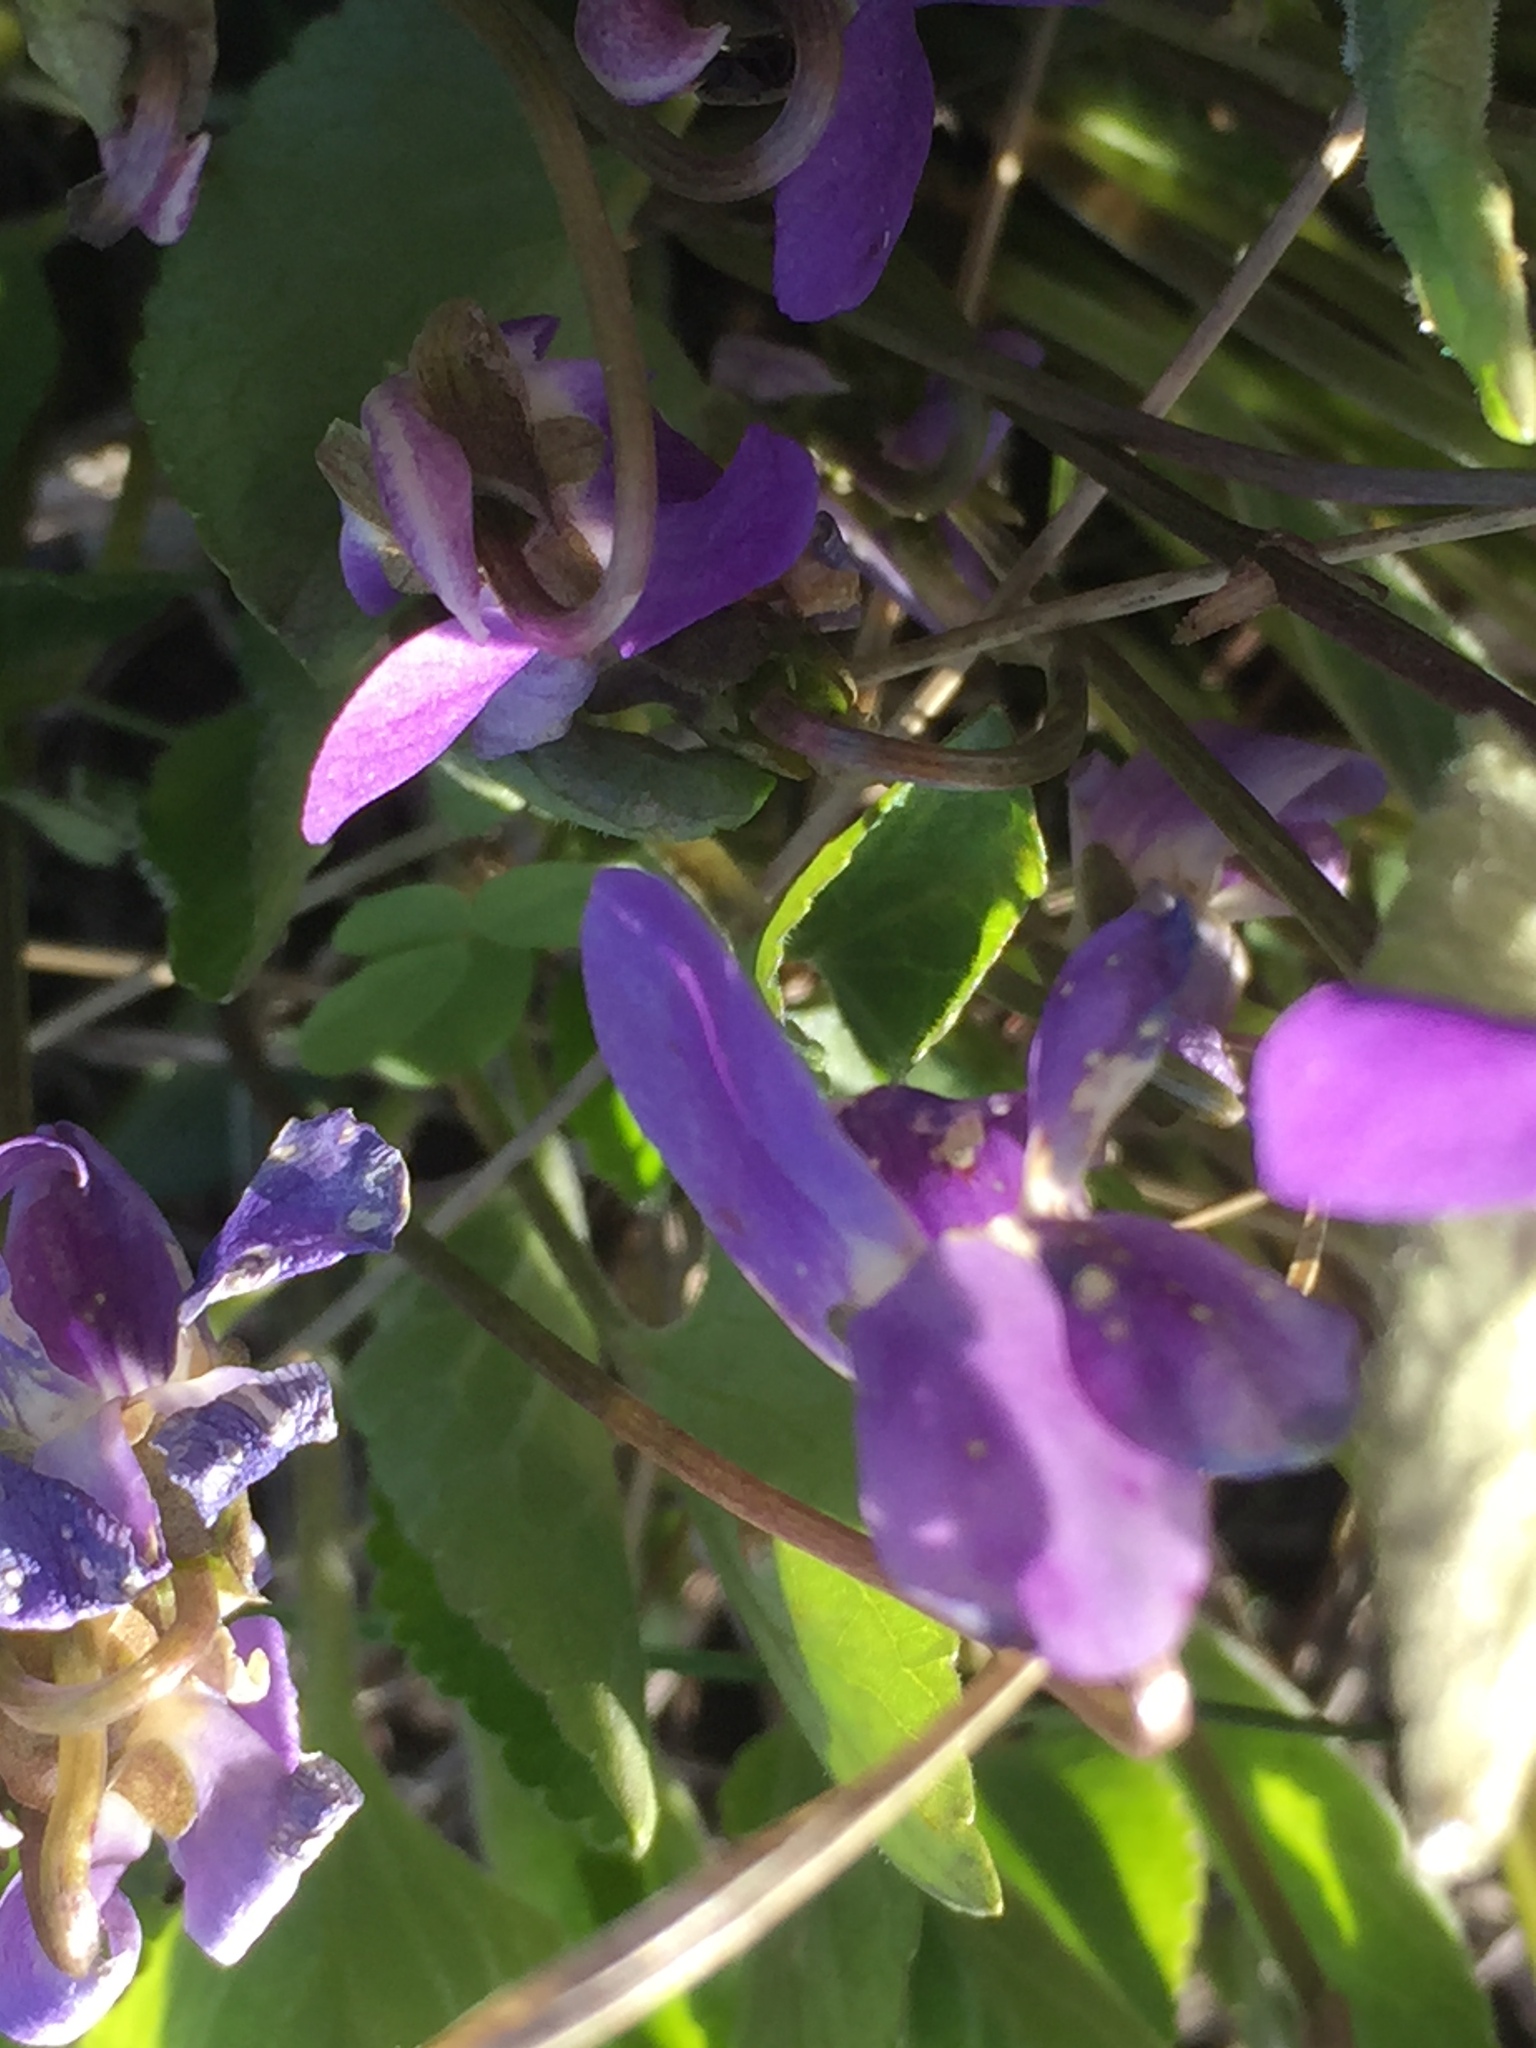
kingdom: Plantae
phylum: Tracheophyta
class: Magnoliopsida
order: Malpighiales
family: Violaceae
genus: Viola
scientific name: Viola ambigua
